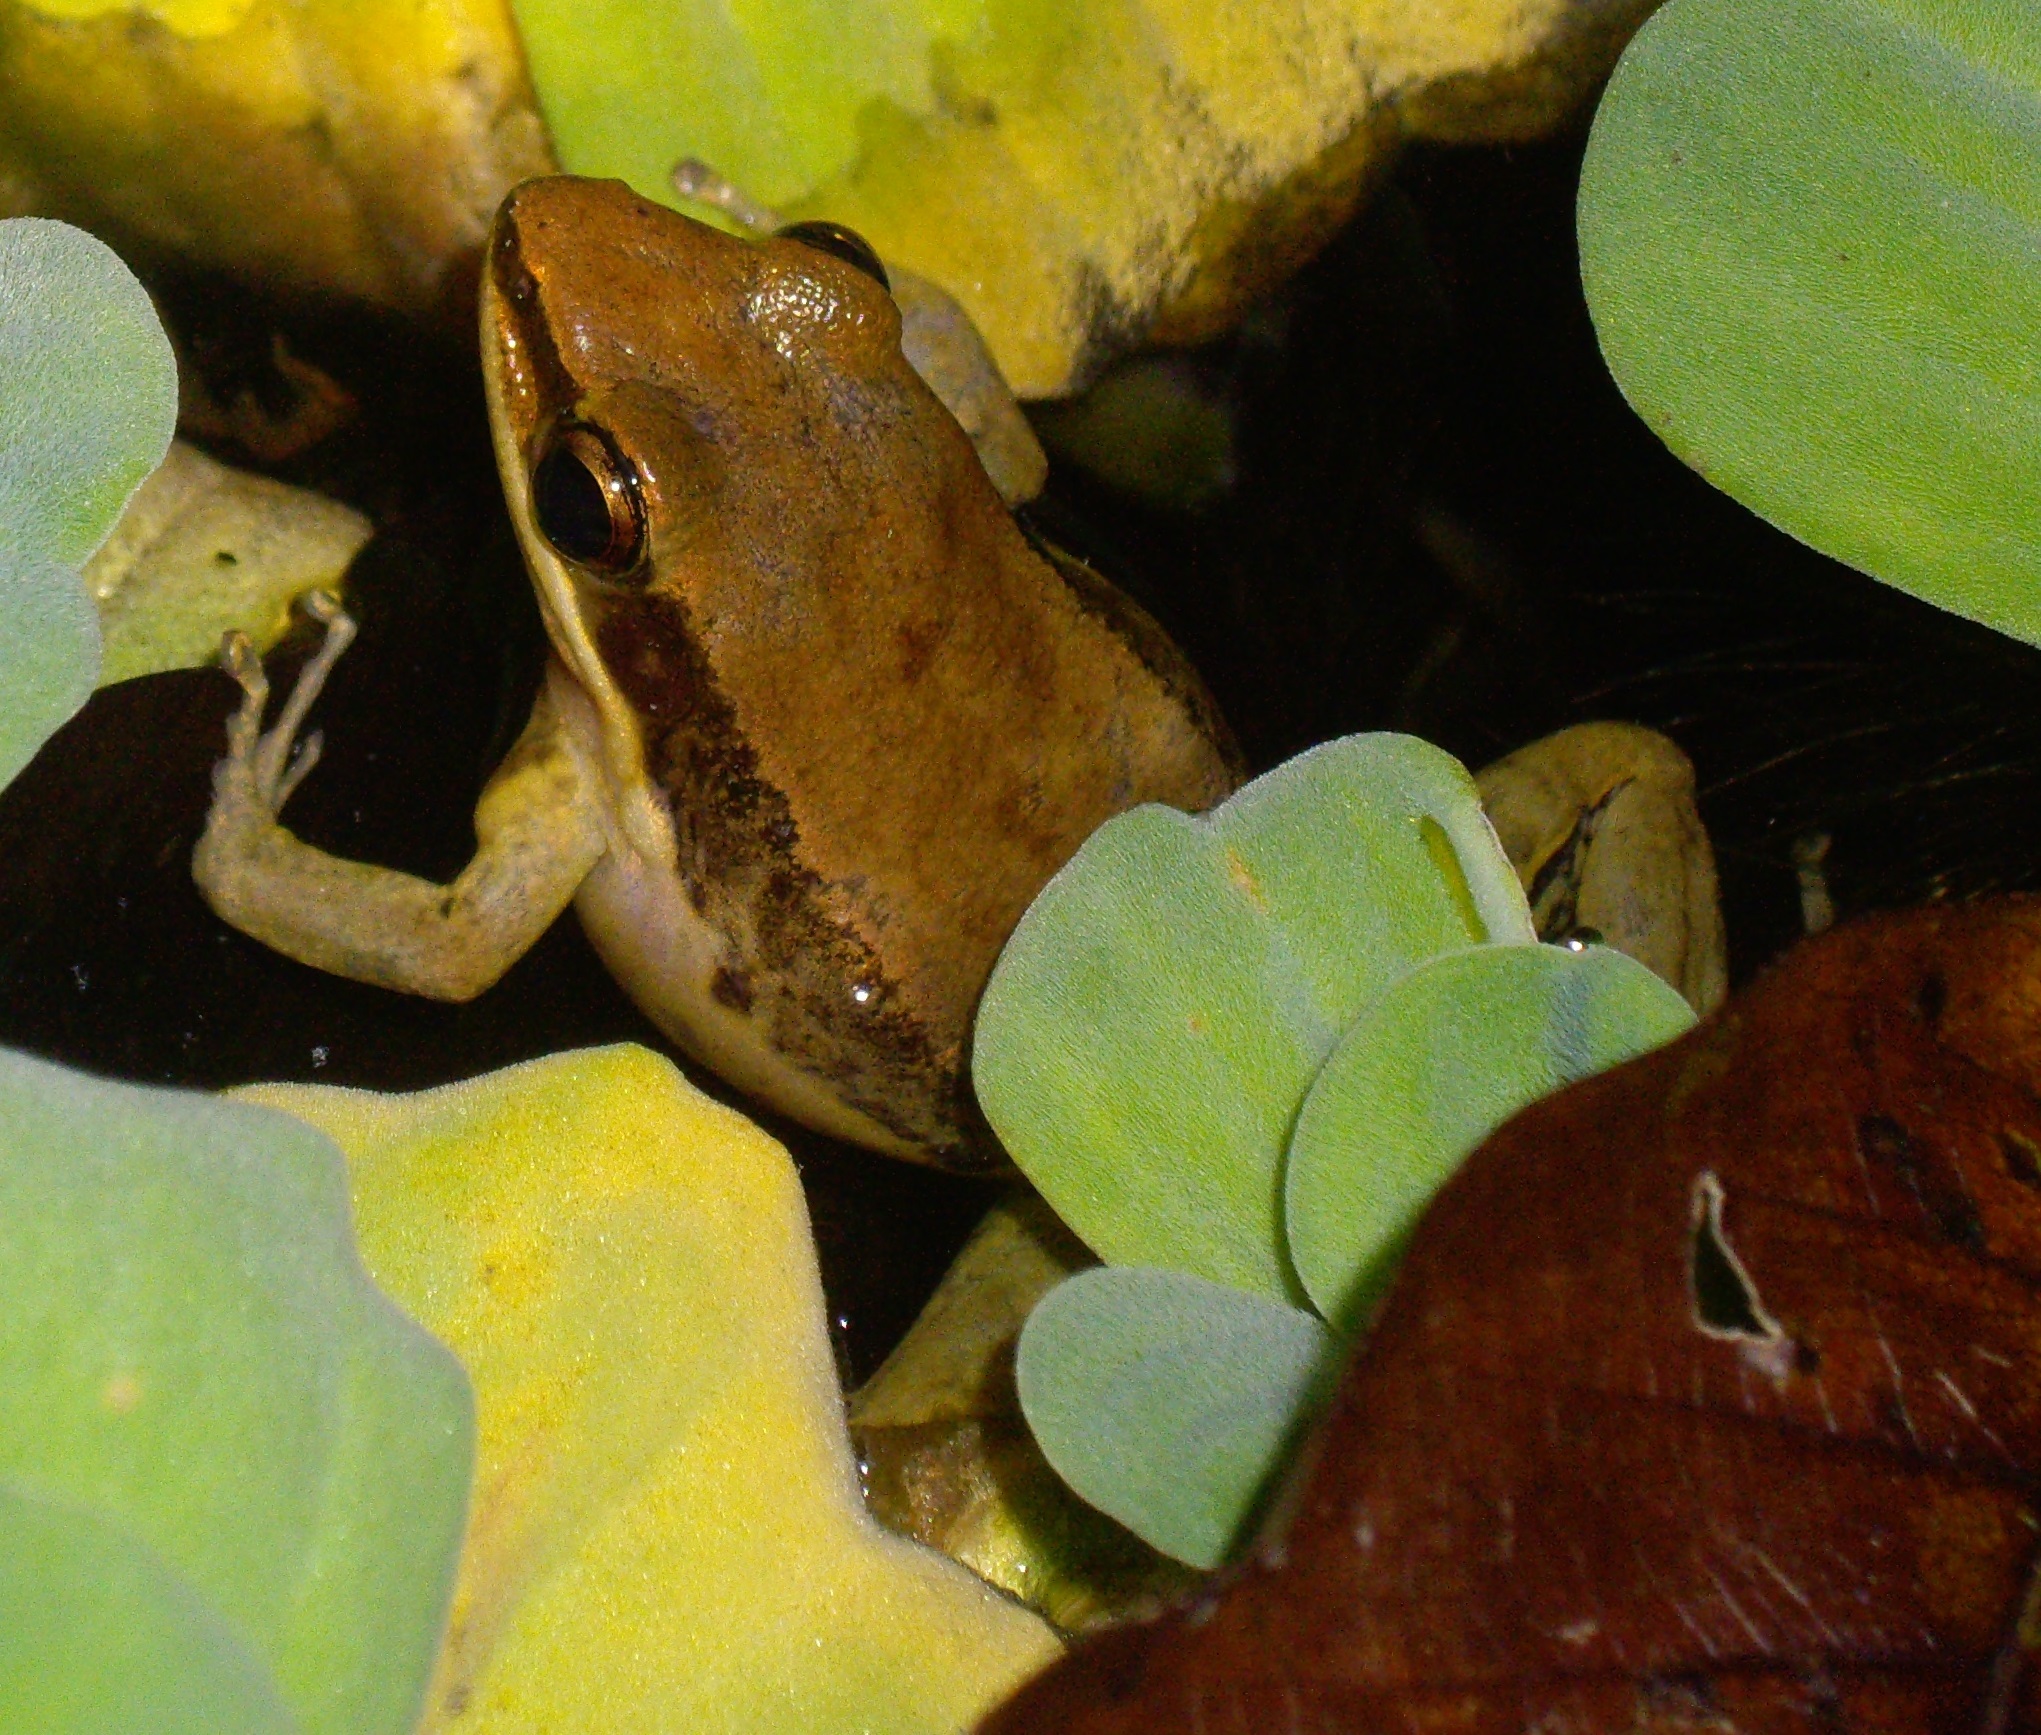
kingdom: Animalia
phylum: Chordata
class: Amphibia
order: Anura
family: Ranidae
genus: Sylvirana
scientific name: Sylvirana nigrovittata
